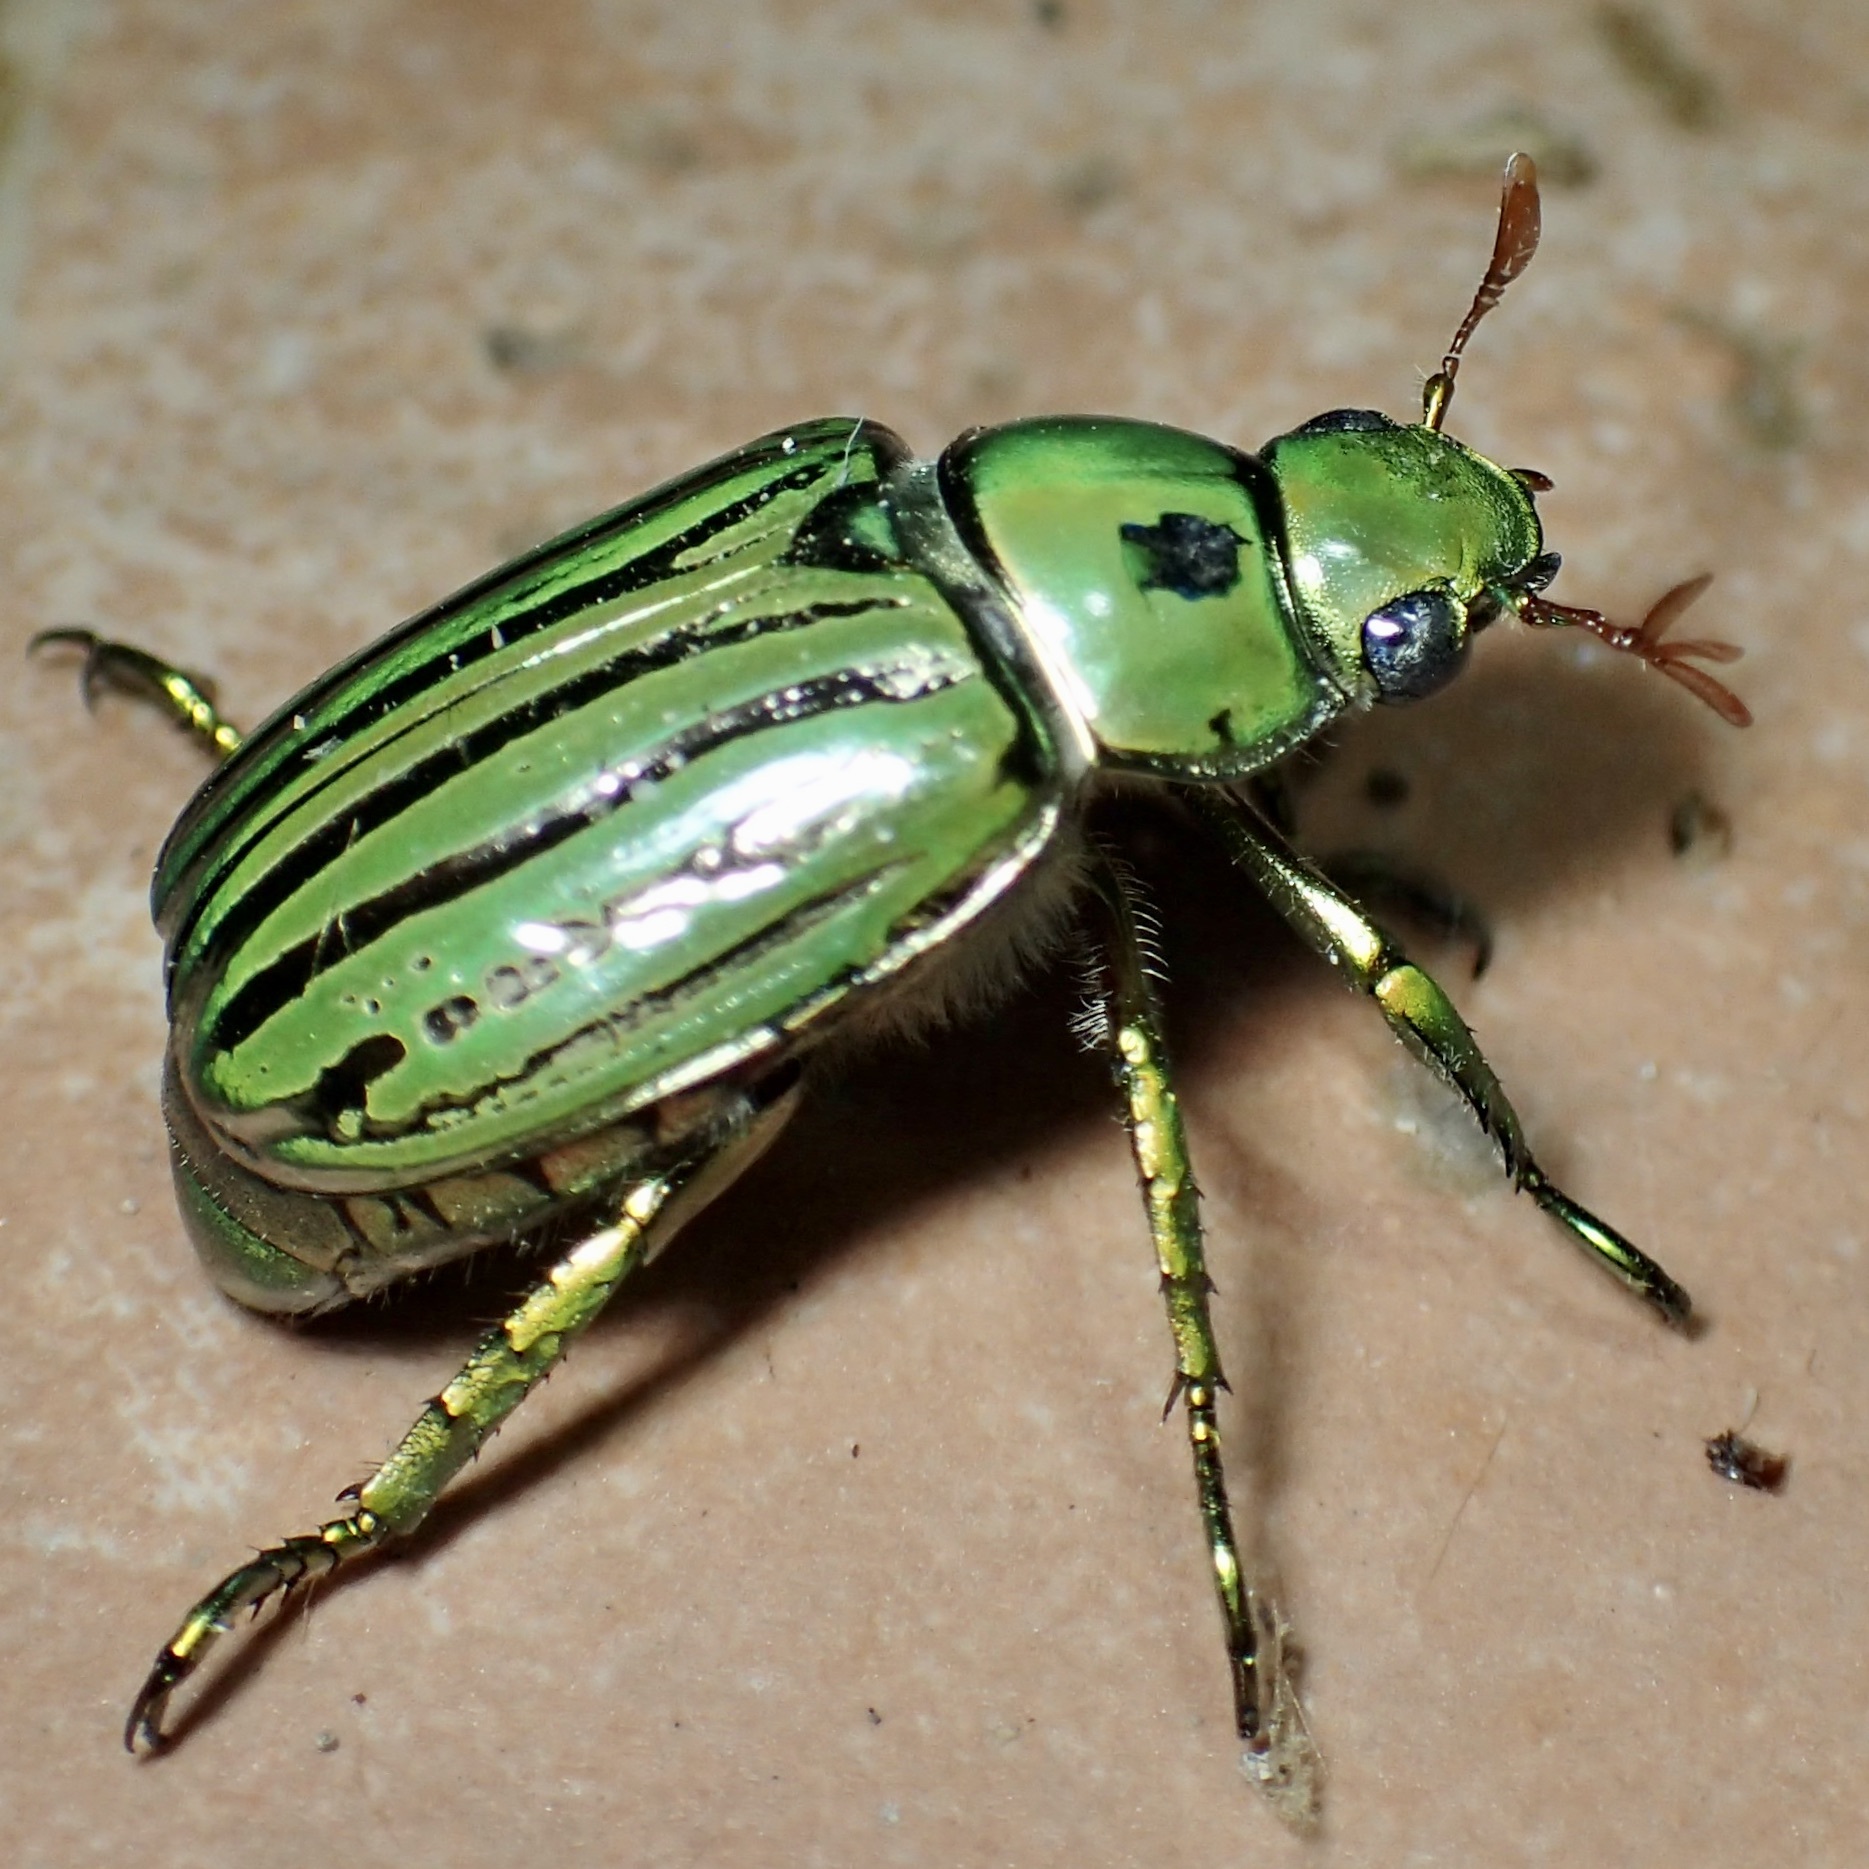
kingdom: Animalia
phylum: Arthropoda
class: Insecta
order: Coleoptera
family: Scarabaeidae
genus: Chrysina
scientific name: Chrysina gloriosa
